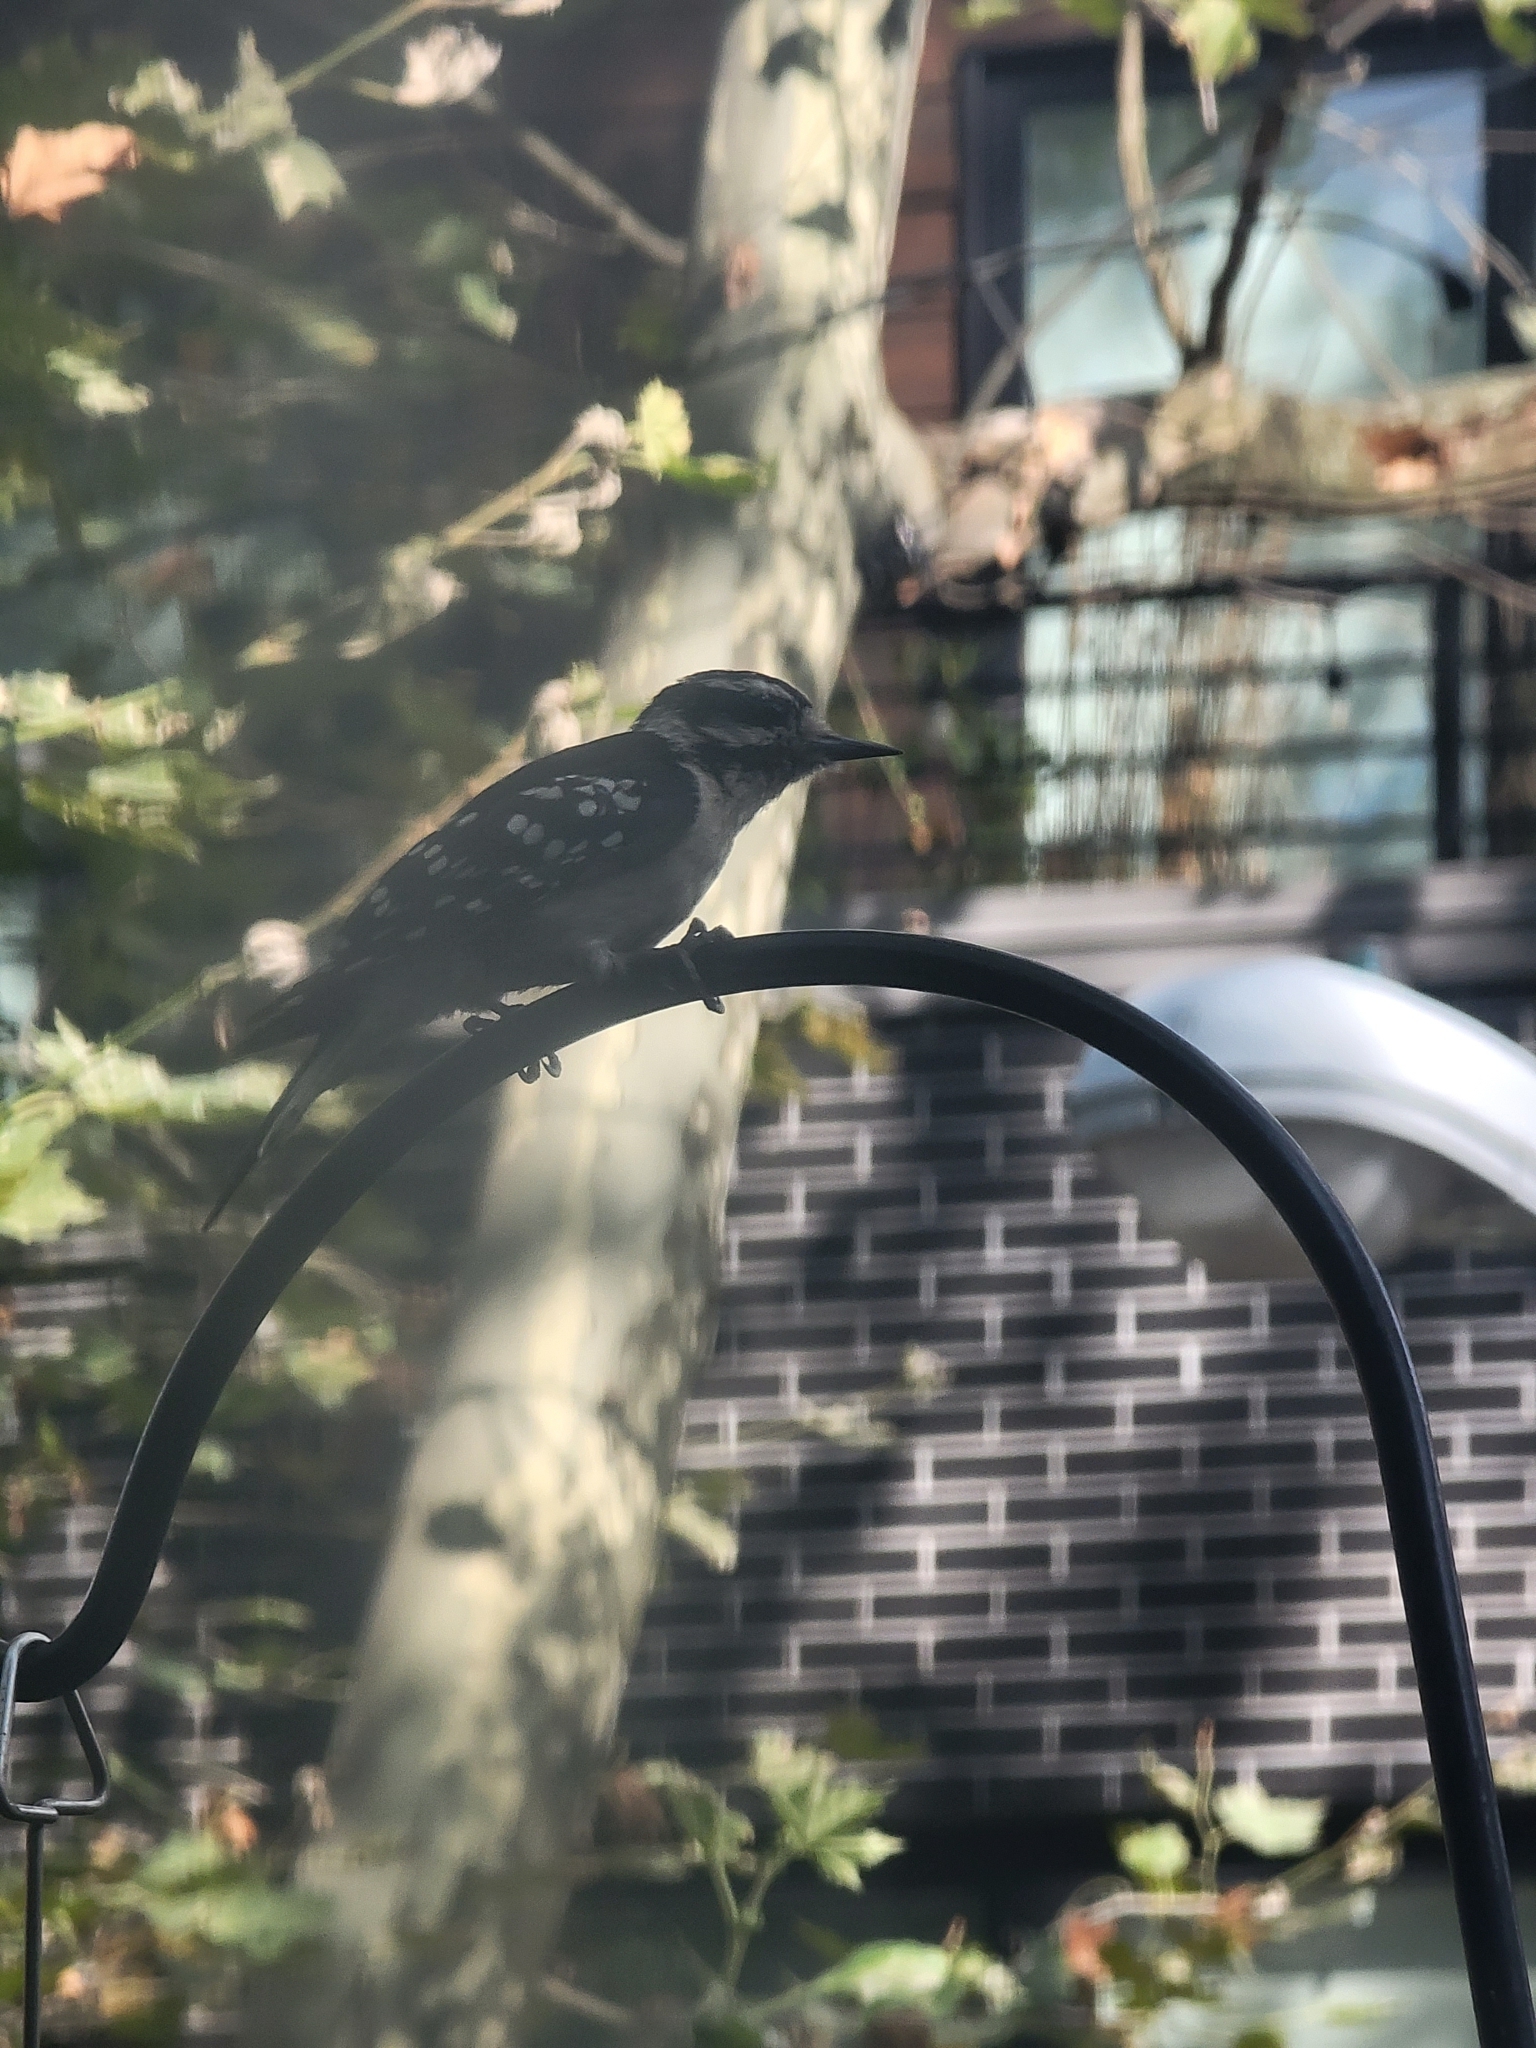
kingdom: Animalia
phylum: Chordata
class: Aves
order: Piciformes
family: Picidae
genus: Dryobates
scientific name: Dryobates pubescens
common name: Downy woodpecker
